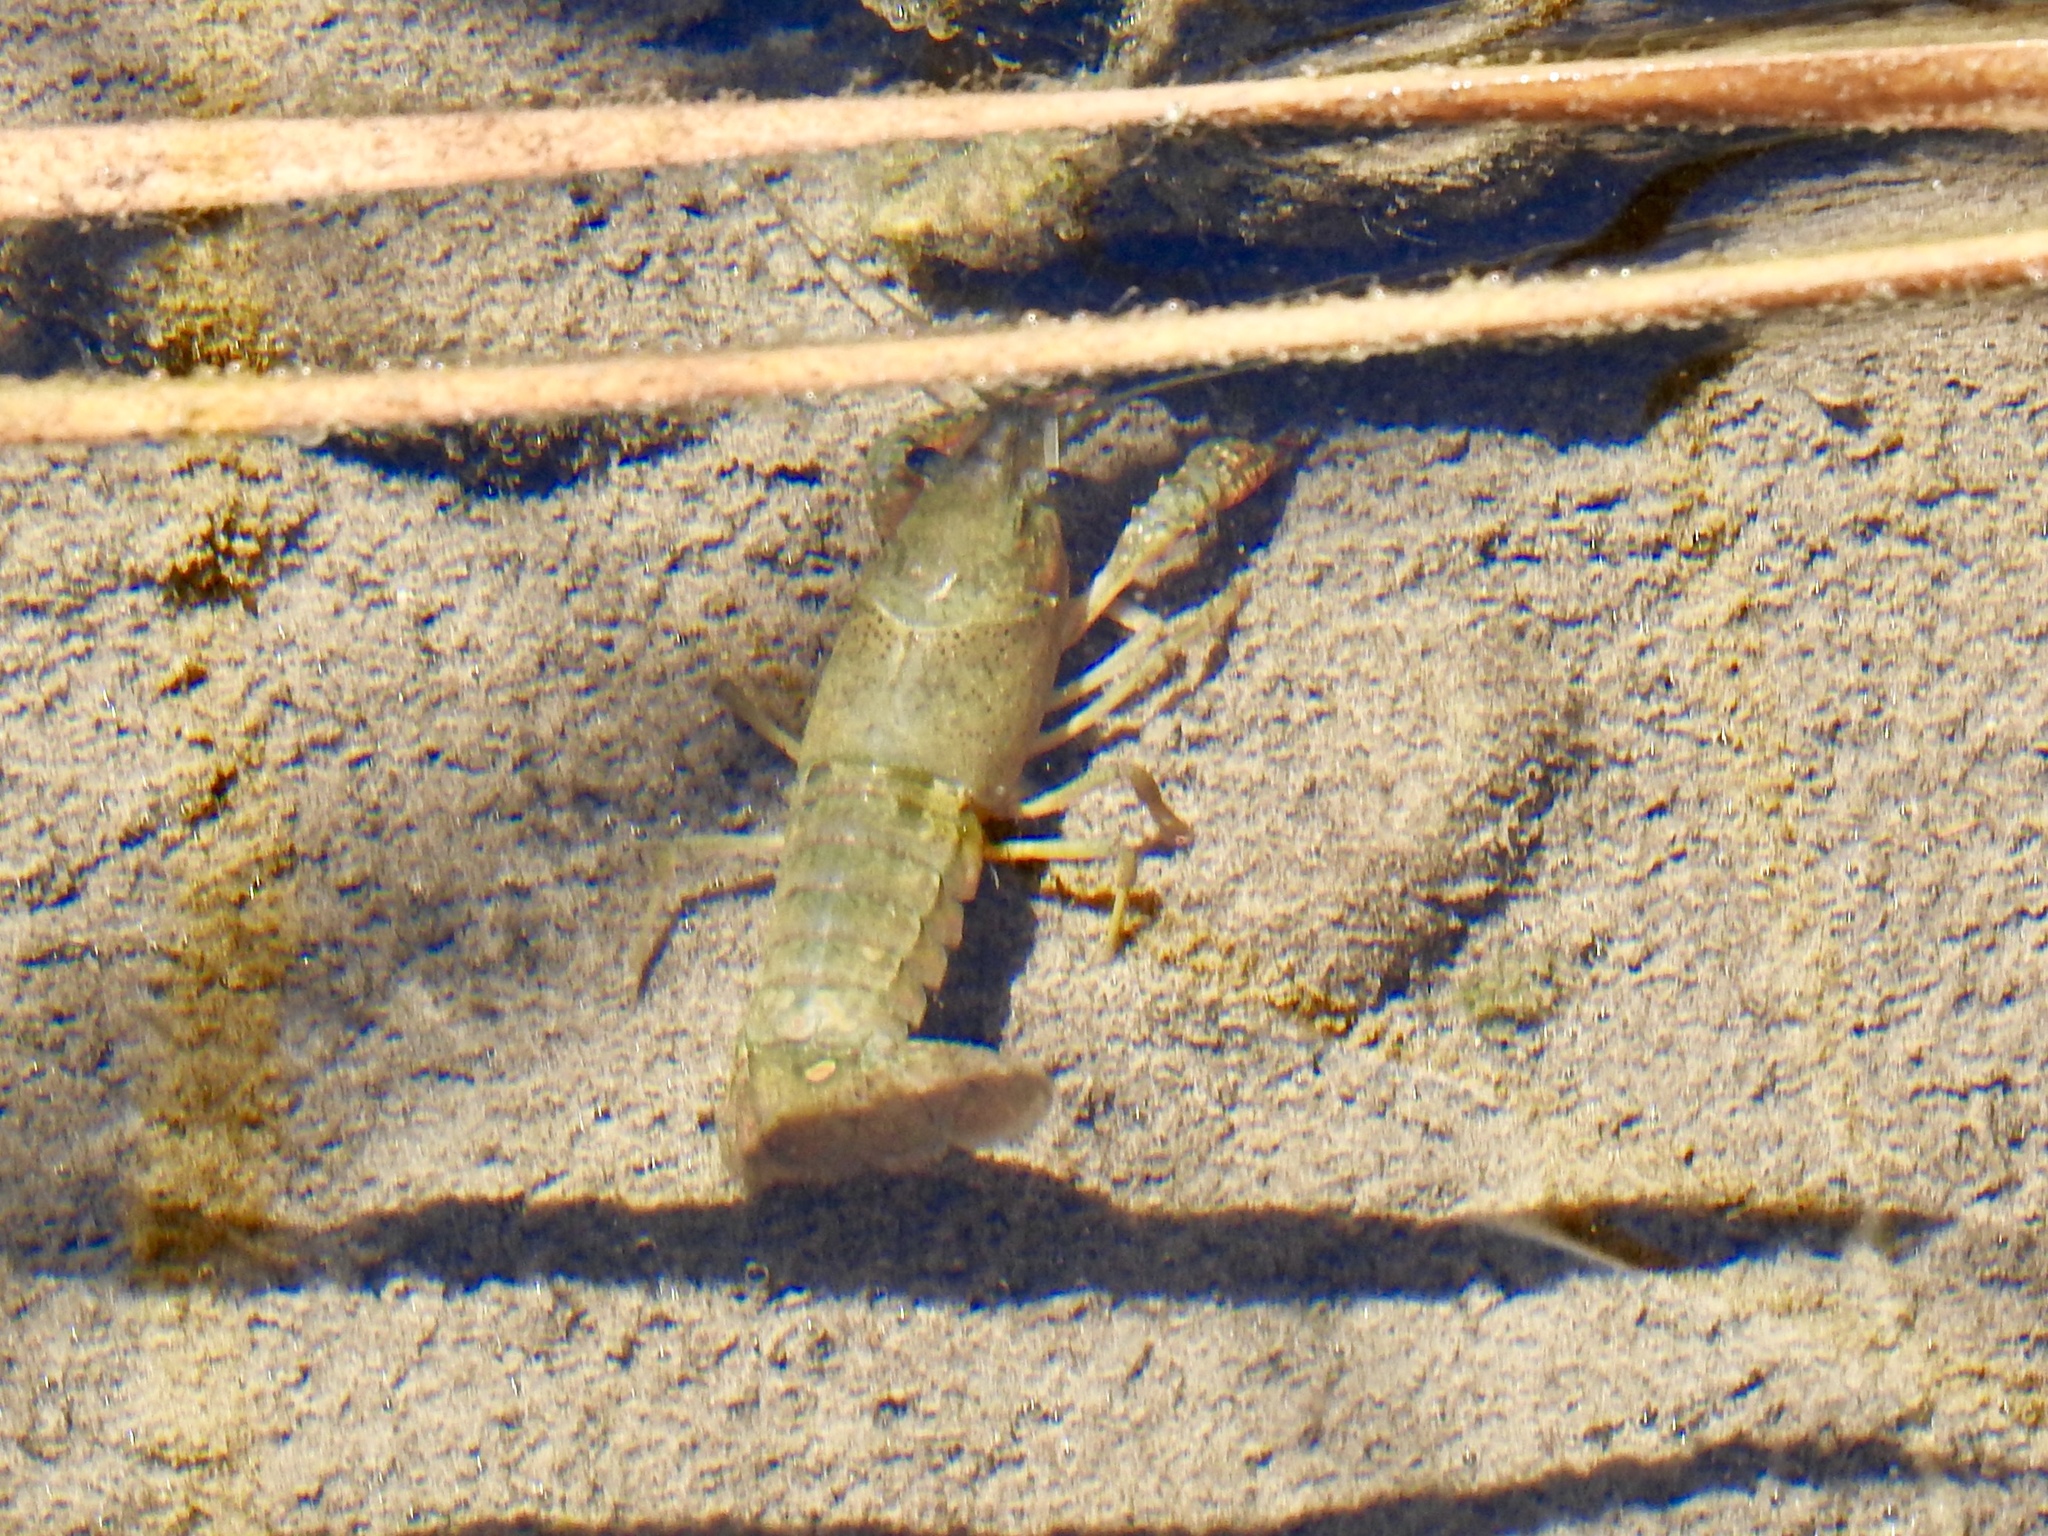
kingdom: Animalia
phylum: Arthropoda
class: Malacostraca
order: Decapoda
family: Cambaridae
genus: Procambarus
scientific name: Procambarus clarkii
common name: Red swamp crayfish
